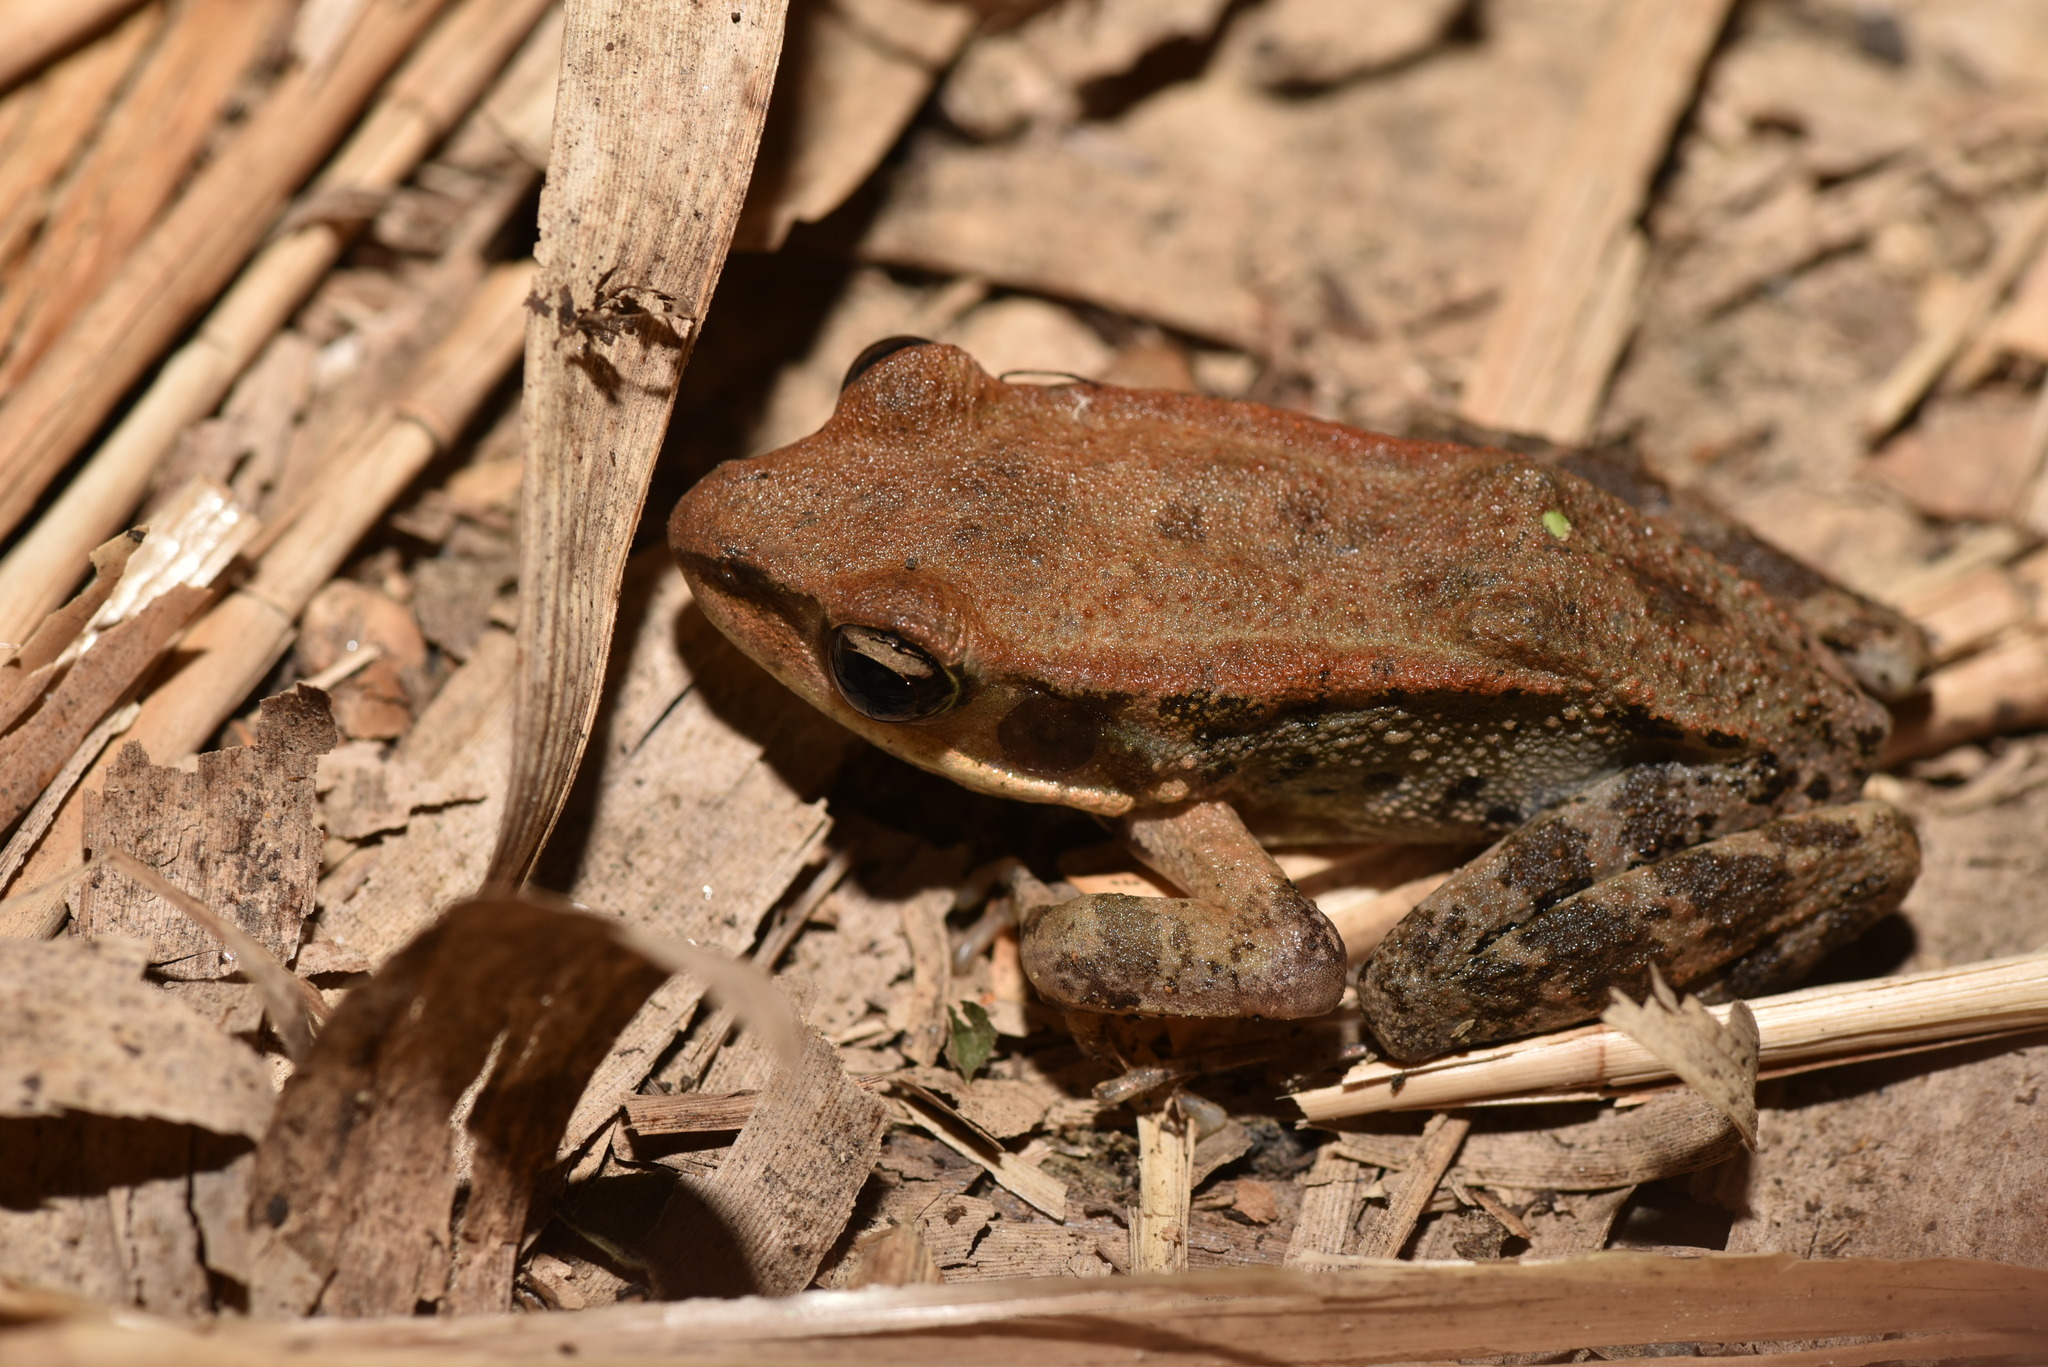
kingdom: Animalia
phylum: Chordata
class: Amphibia
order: Anura
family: Ranidae
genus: Hylarana
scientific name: Hylarana latouchii
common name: Broad-folded frog
